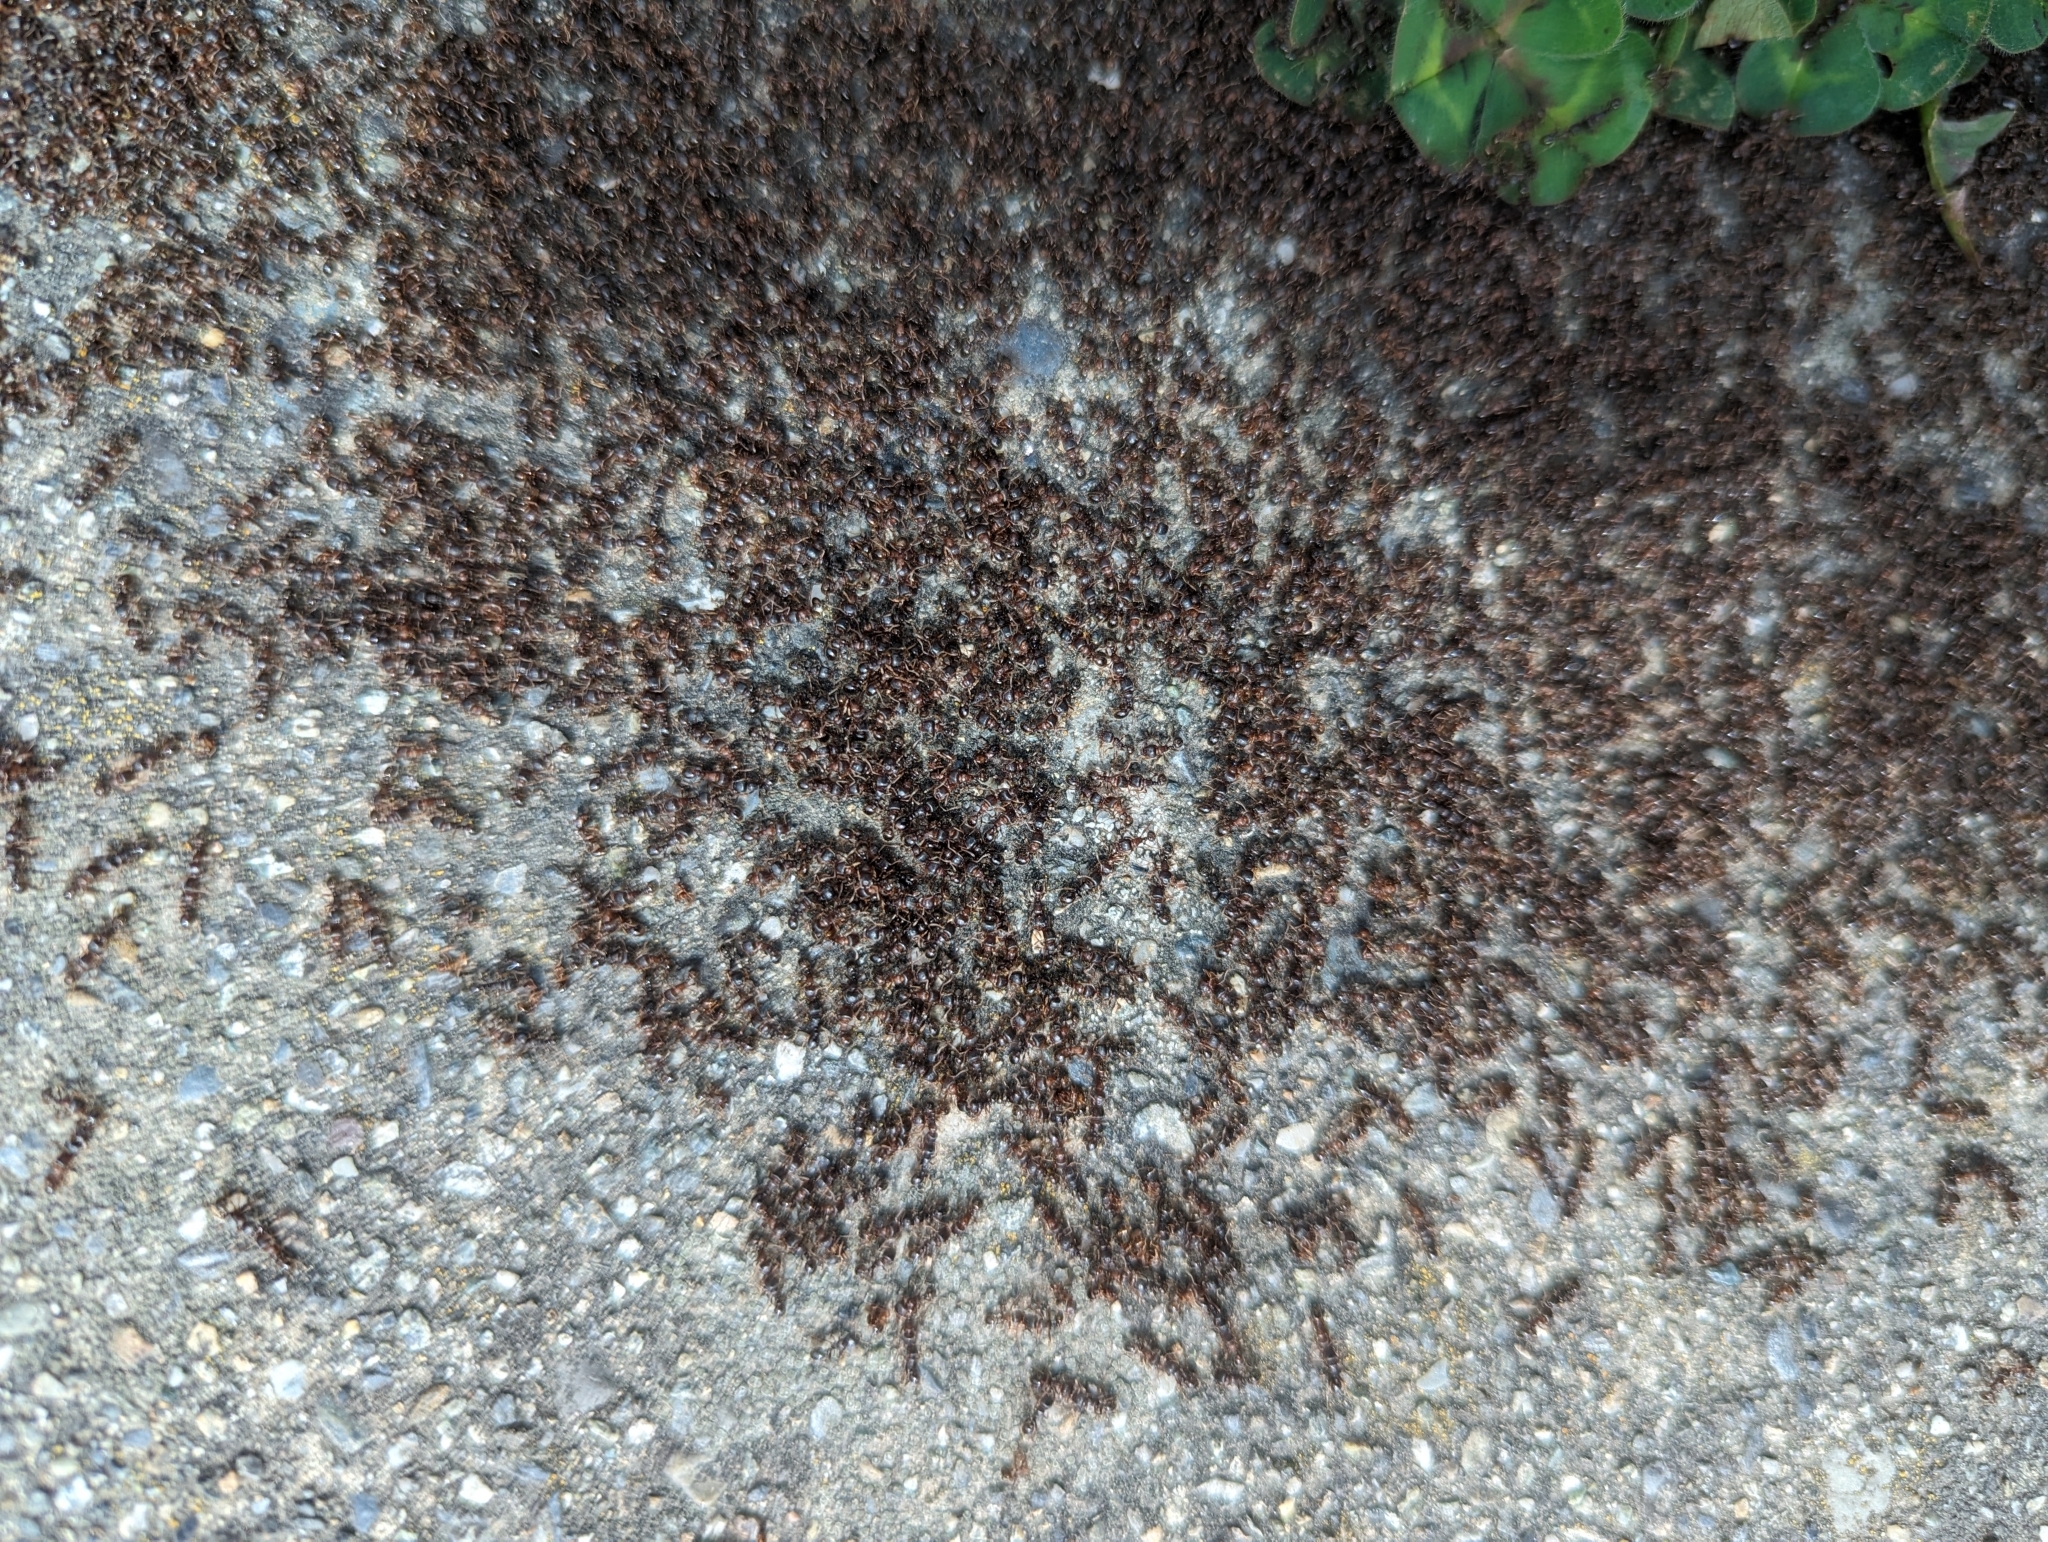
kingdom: Animalia
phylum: Arthropoda
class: Insecta
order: Hymenoptera
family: Formicidae
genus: Tetramorium
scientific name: Tetramorium immigrans
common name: Pavement ant
